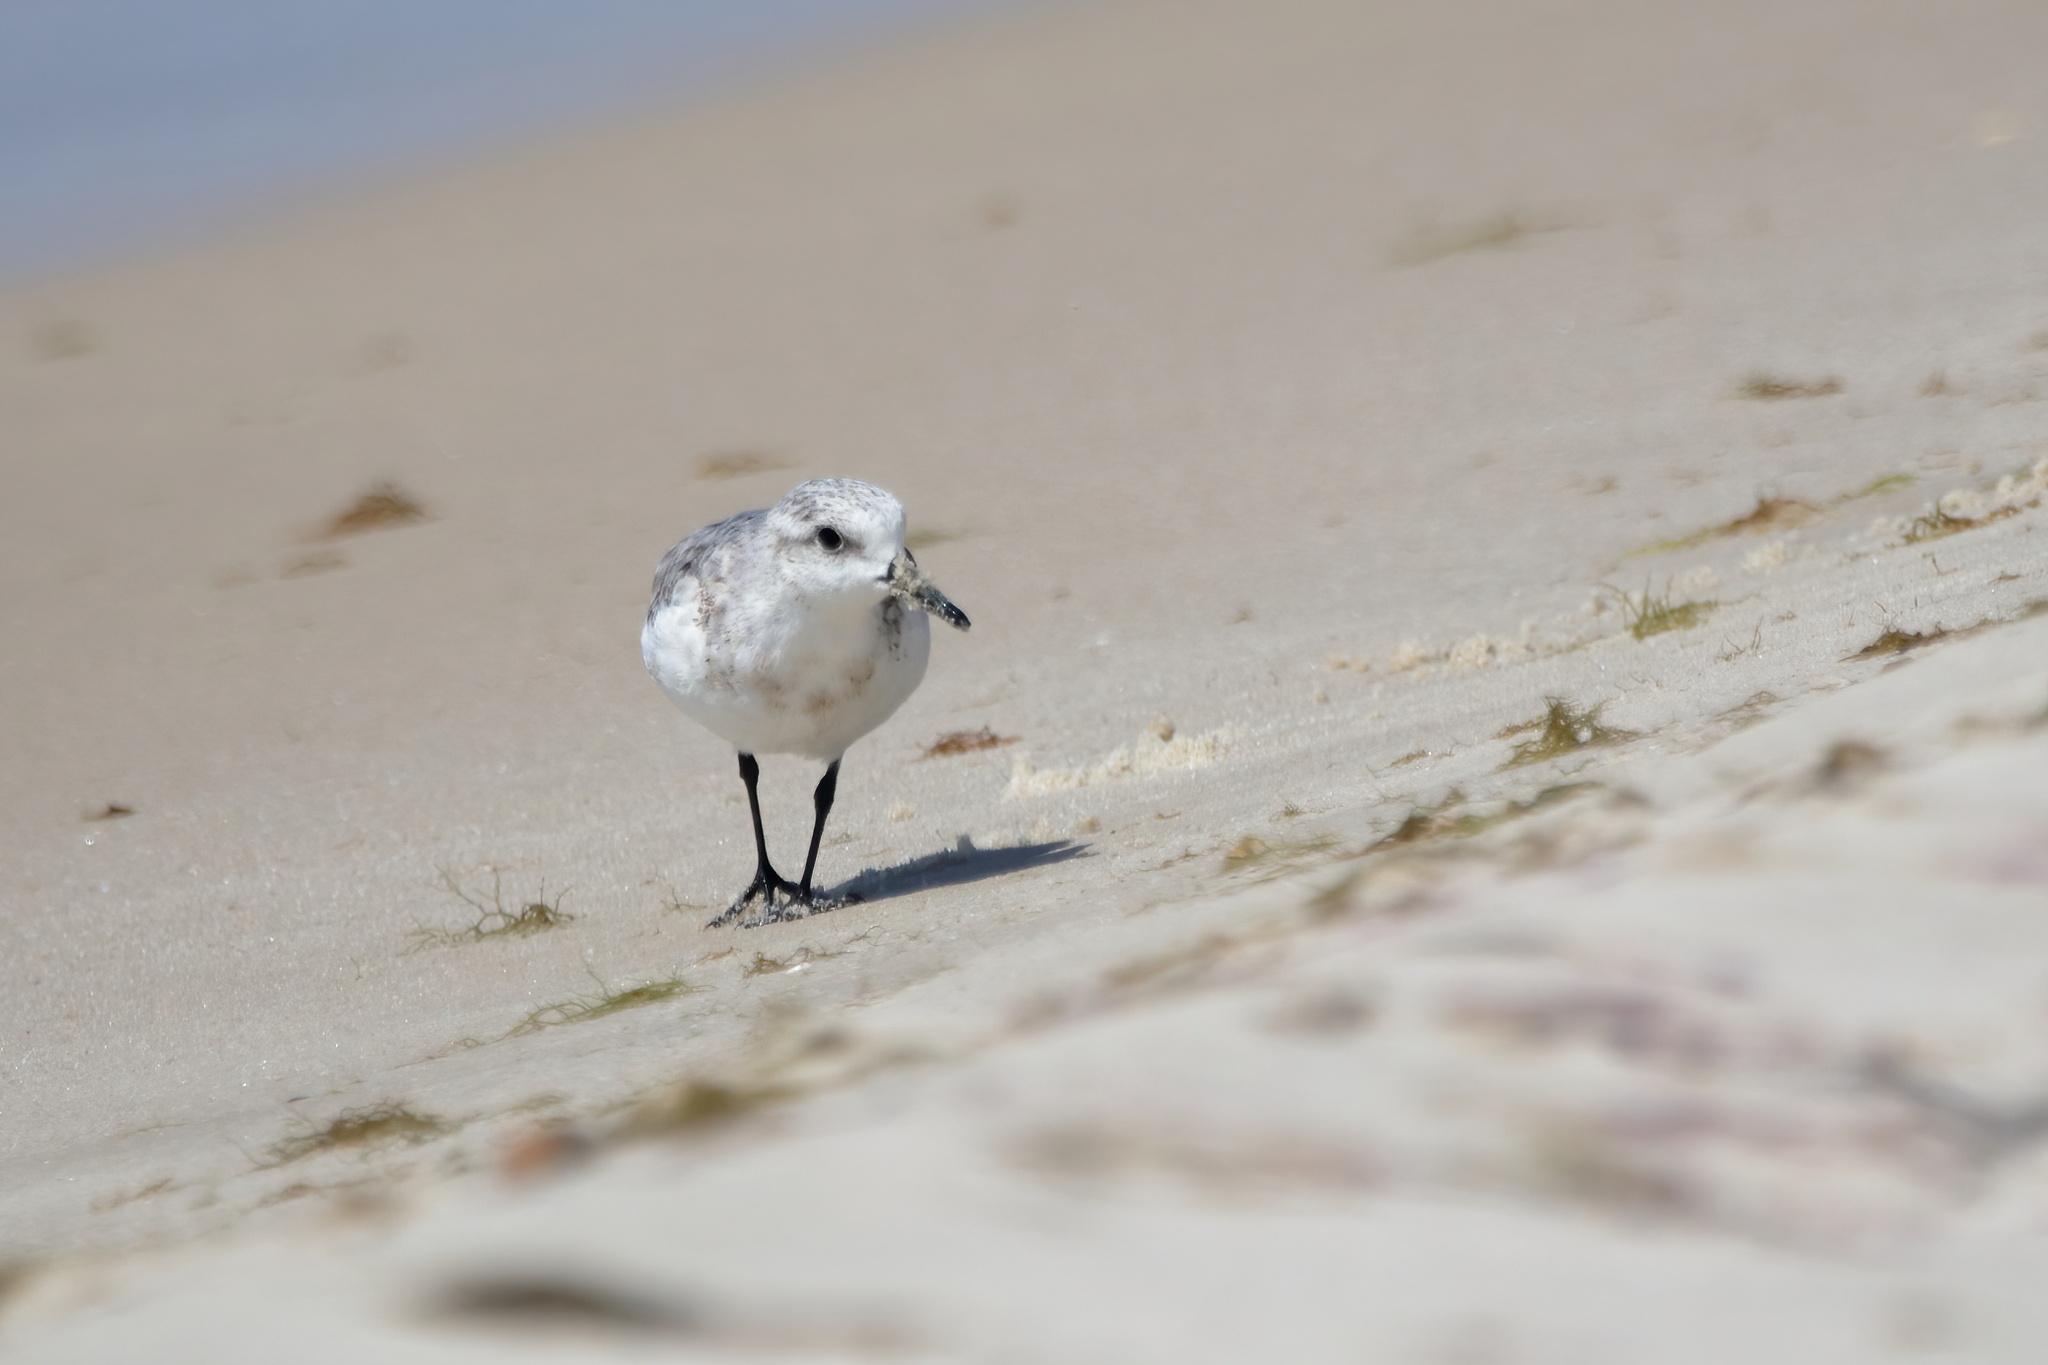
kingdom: Animalia
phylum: Chordata
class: Aves
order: Charadriiformes
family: Scolopacidae
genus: Calidris
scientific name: Calidris alba
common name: Sanderling
